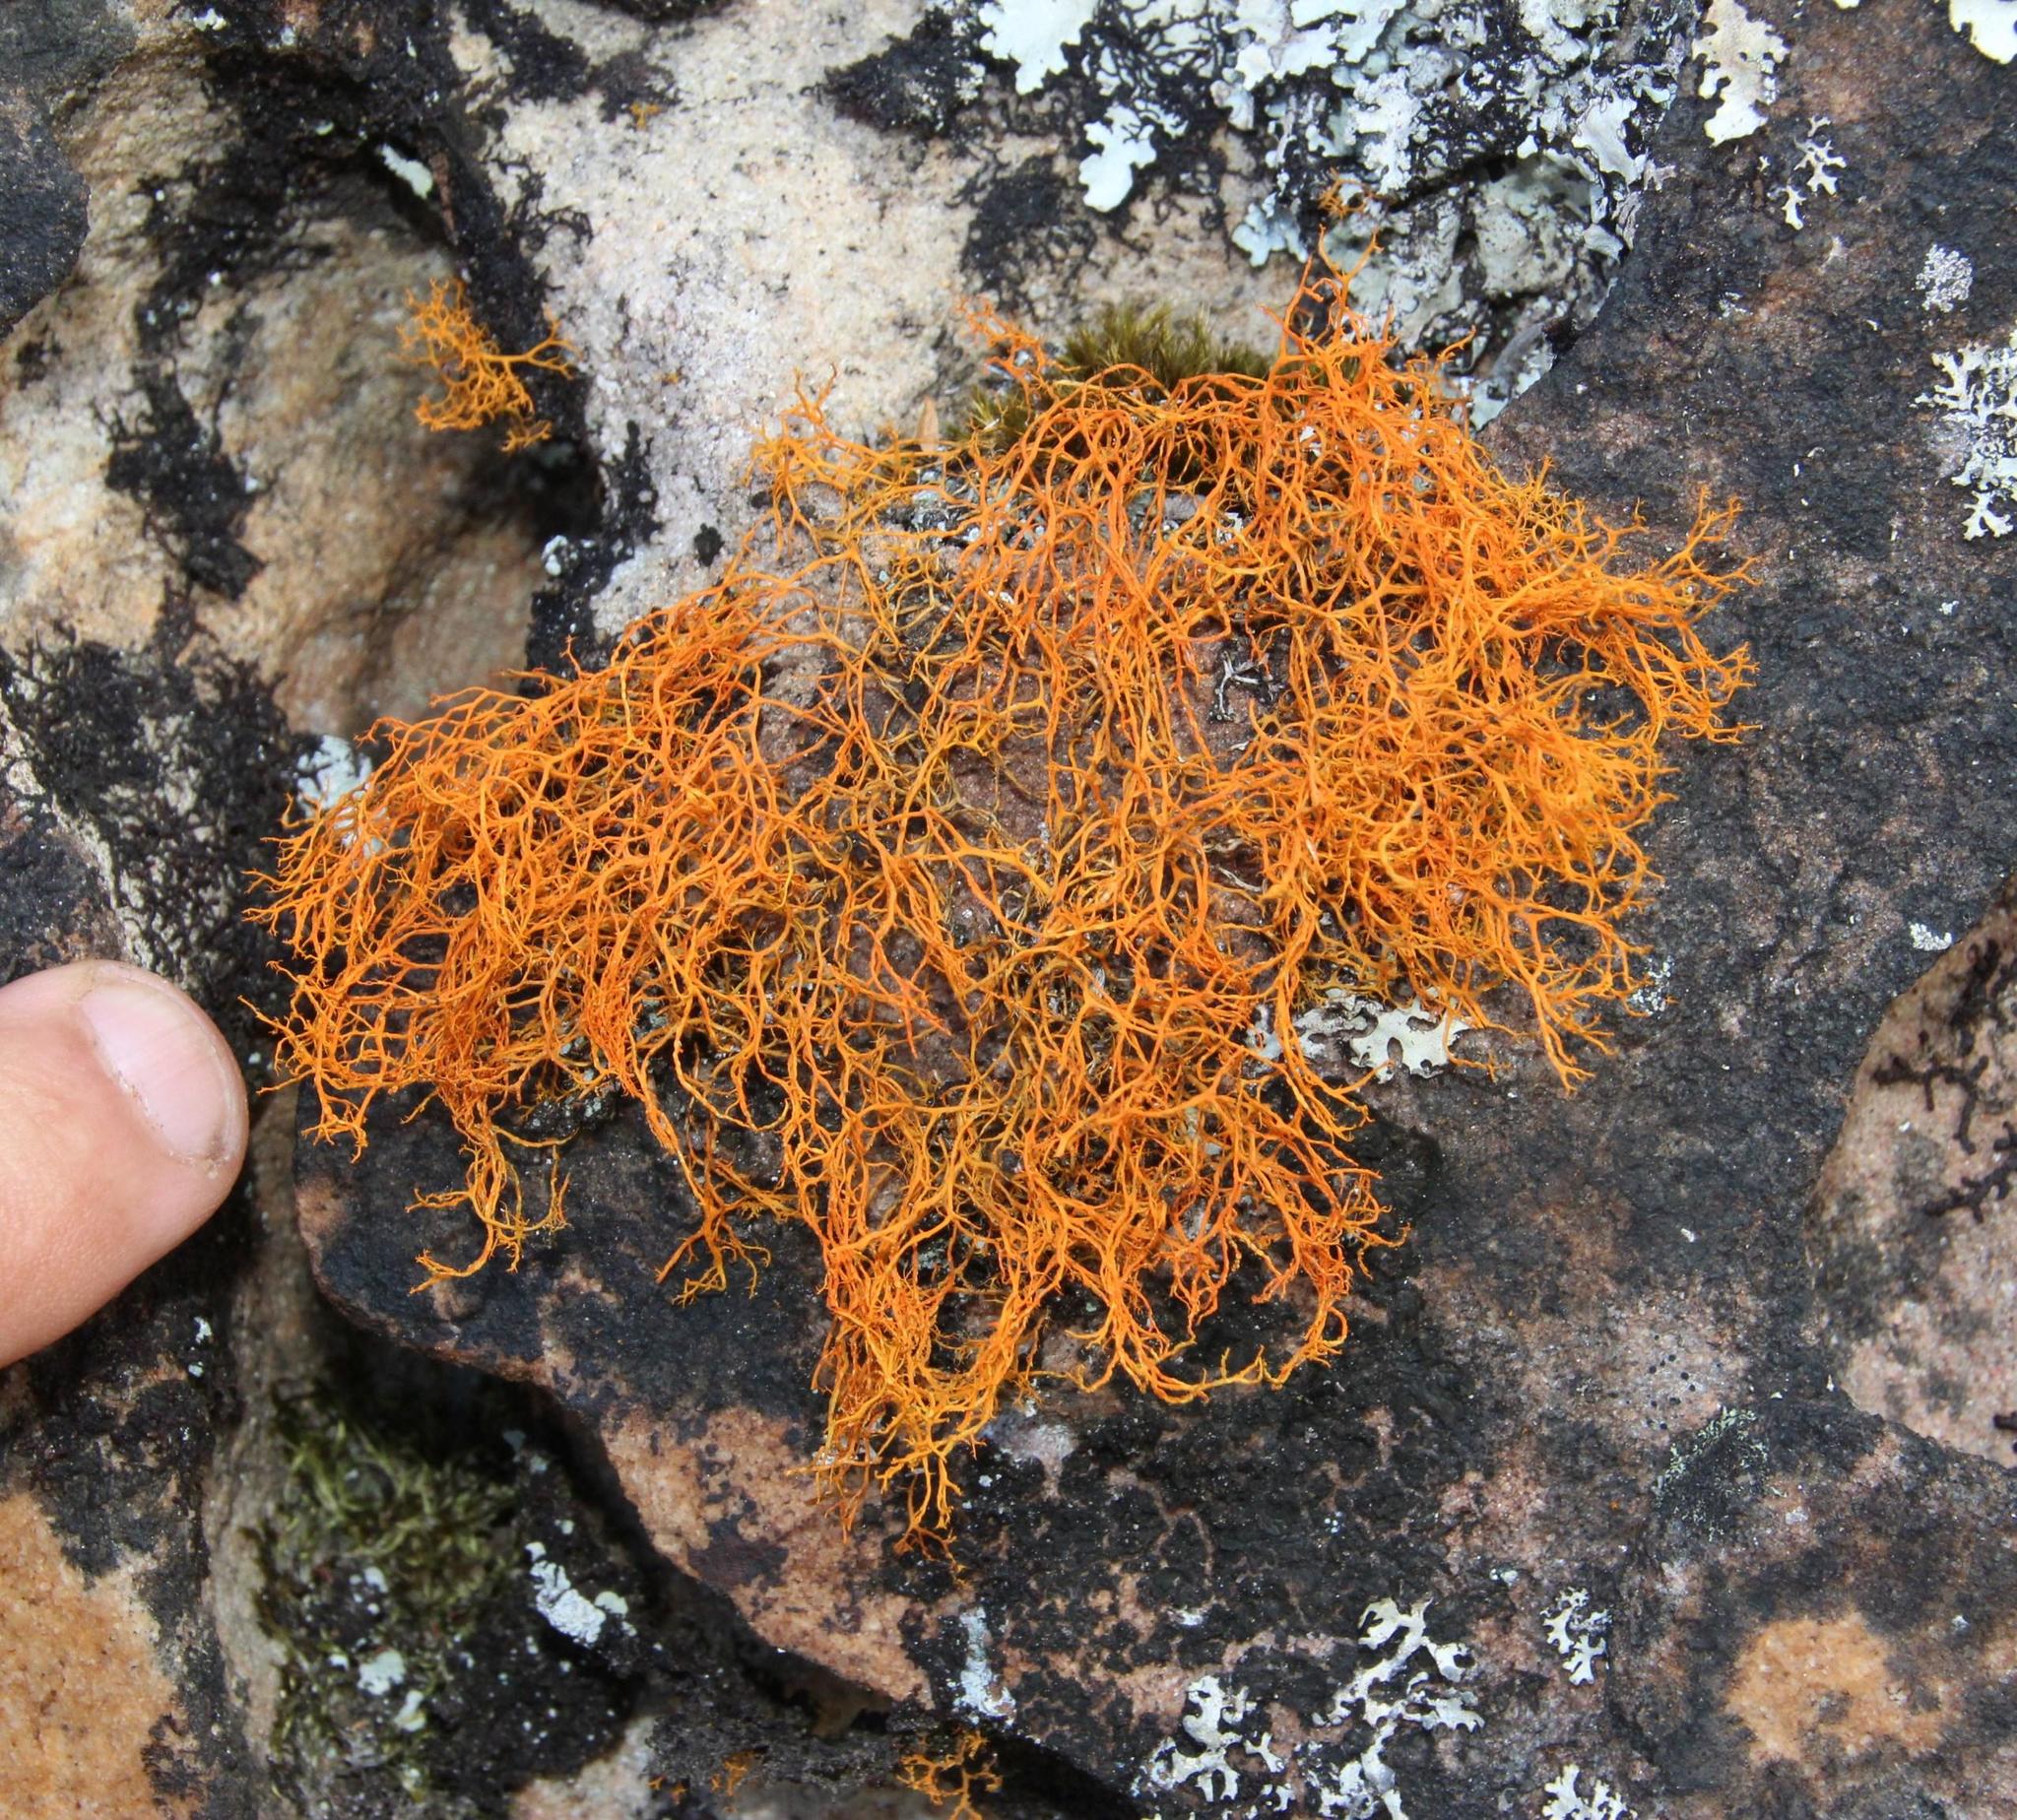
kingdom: Fungi
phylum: Ascomycota
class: Lecanoromycetes
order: Teloschistales
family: Teloschistaceae
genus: Teloschistes
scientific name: Teloschistes flavicans
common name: Golden hair-lichen
